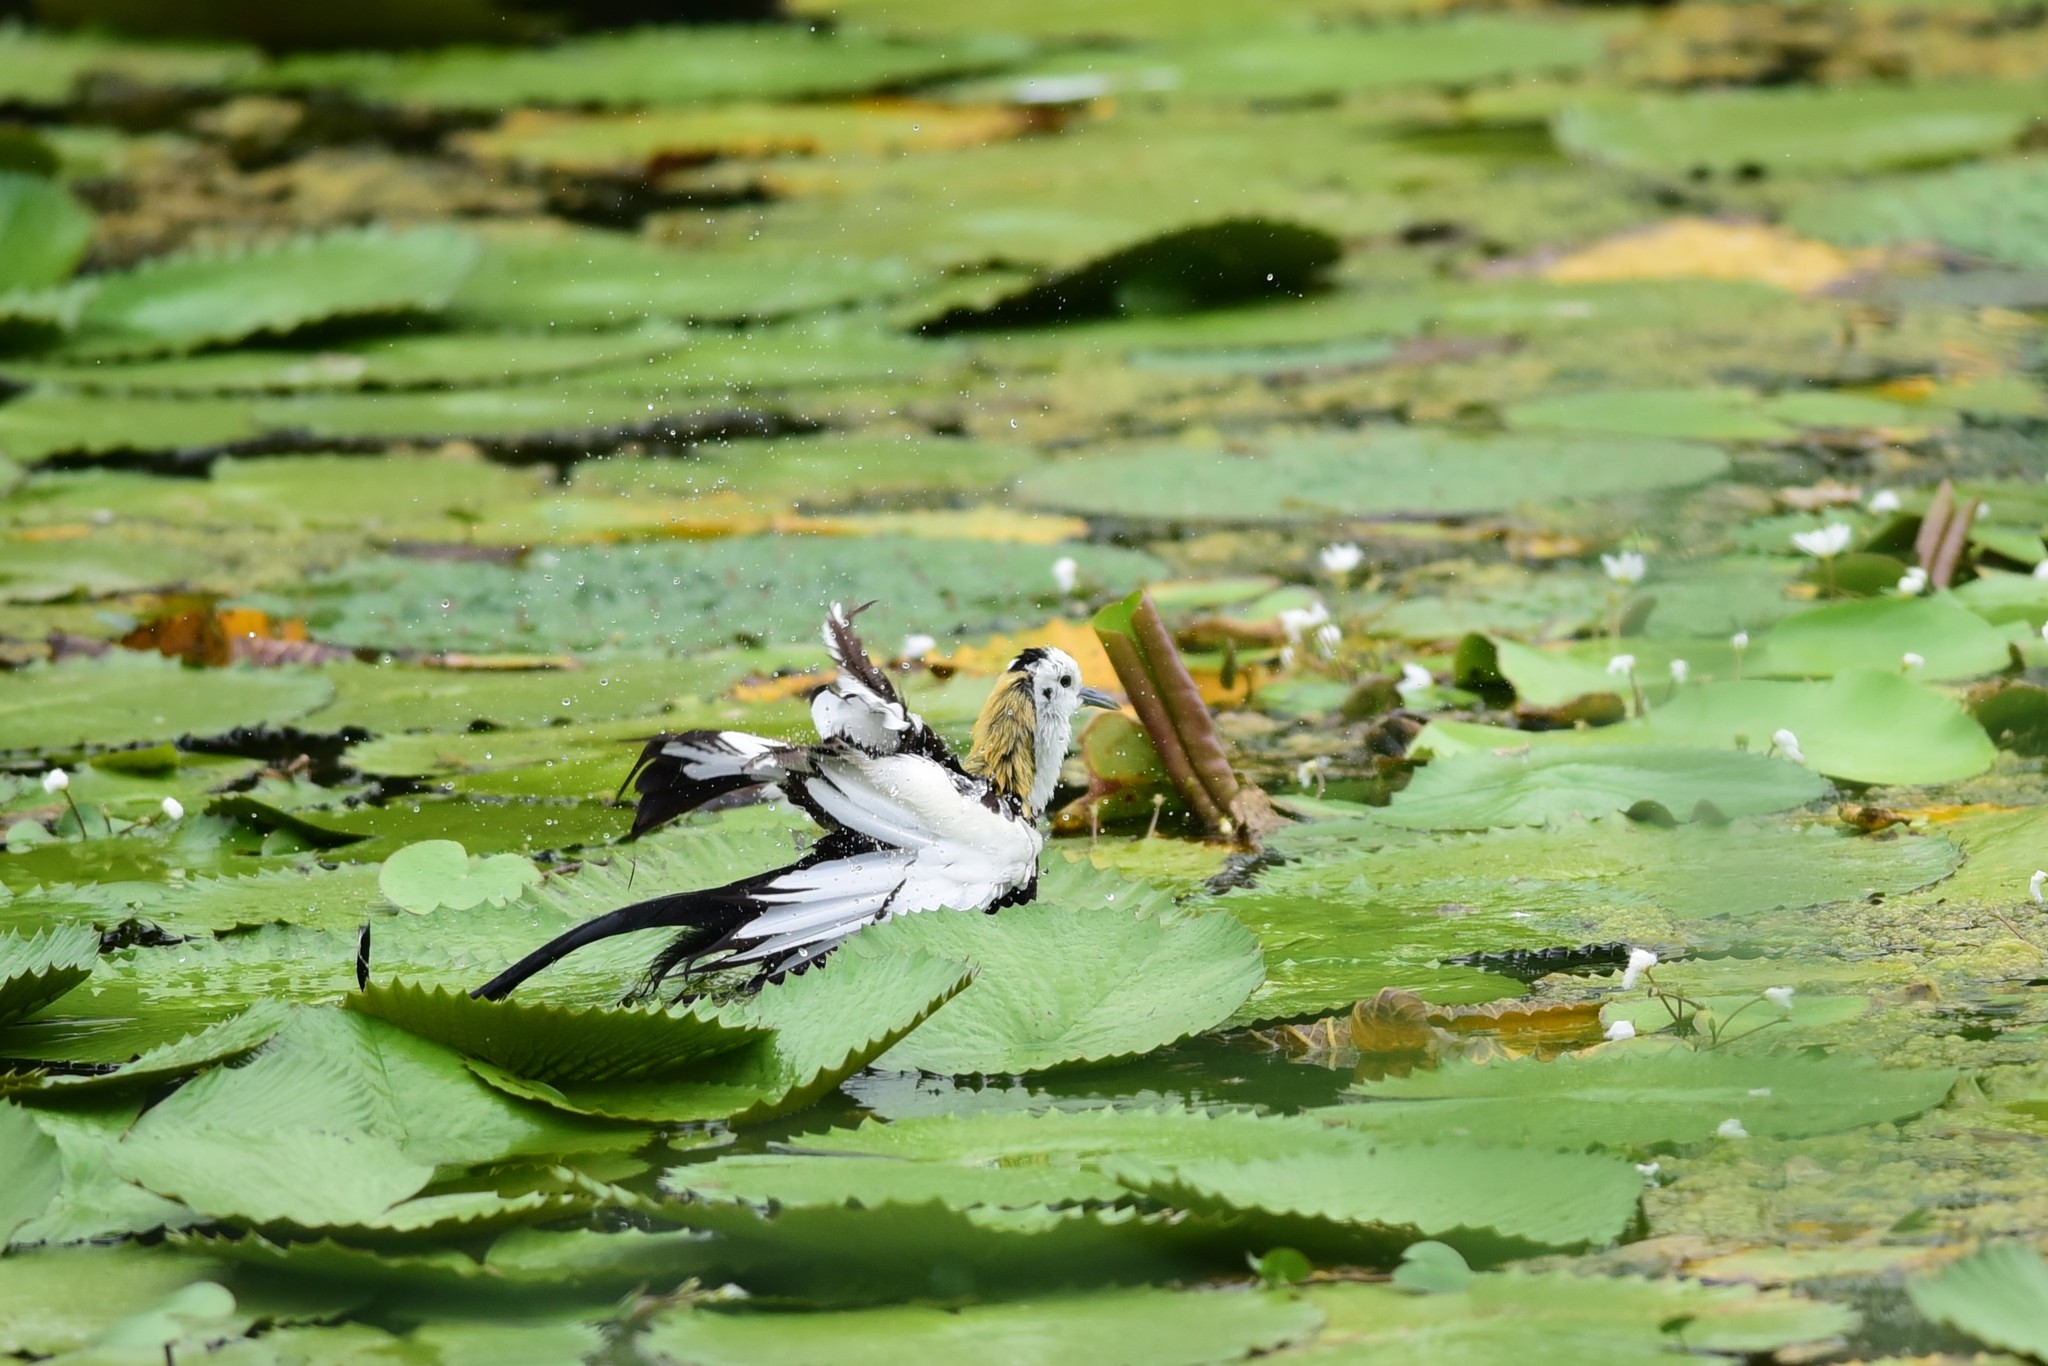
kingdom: Animalia
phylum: Chordata
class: Aves
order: Charadriiformes
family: Jacanidae
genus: Hydrophasianus
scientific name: Hydrophasianus chirurgus
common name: Pheasant-tailed jacana
